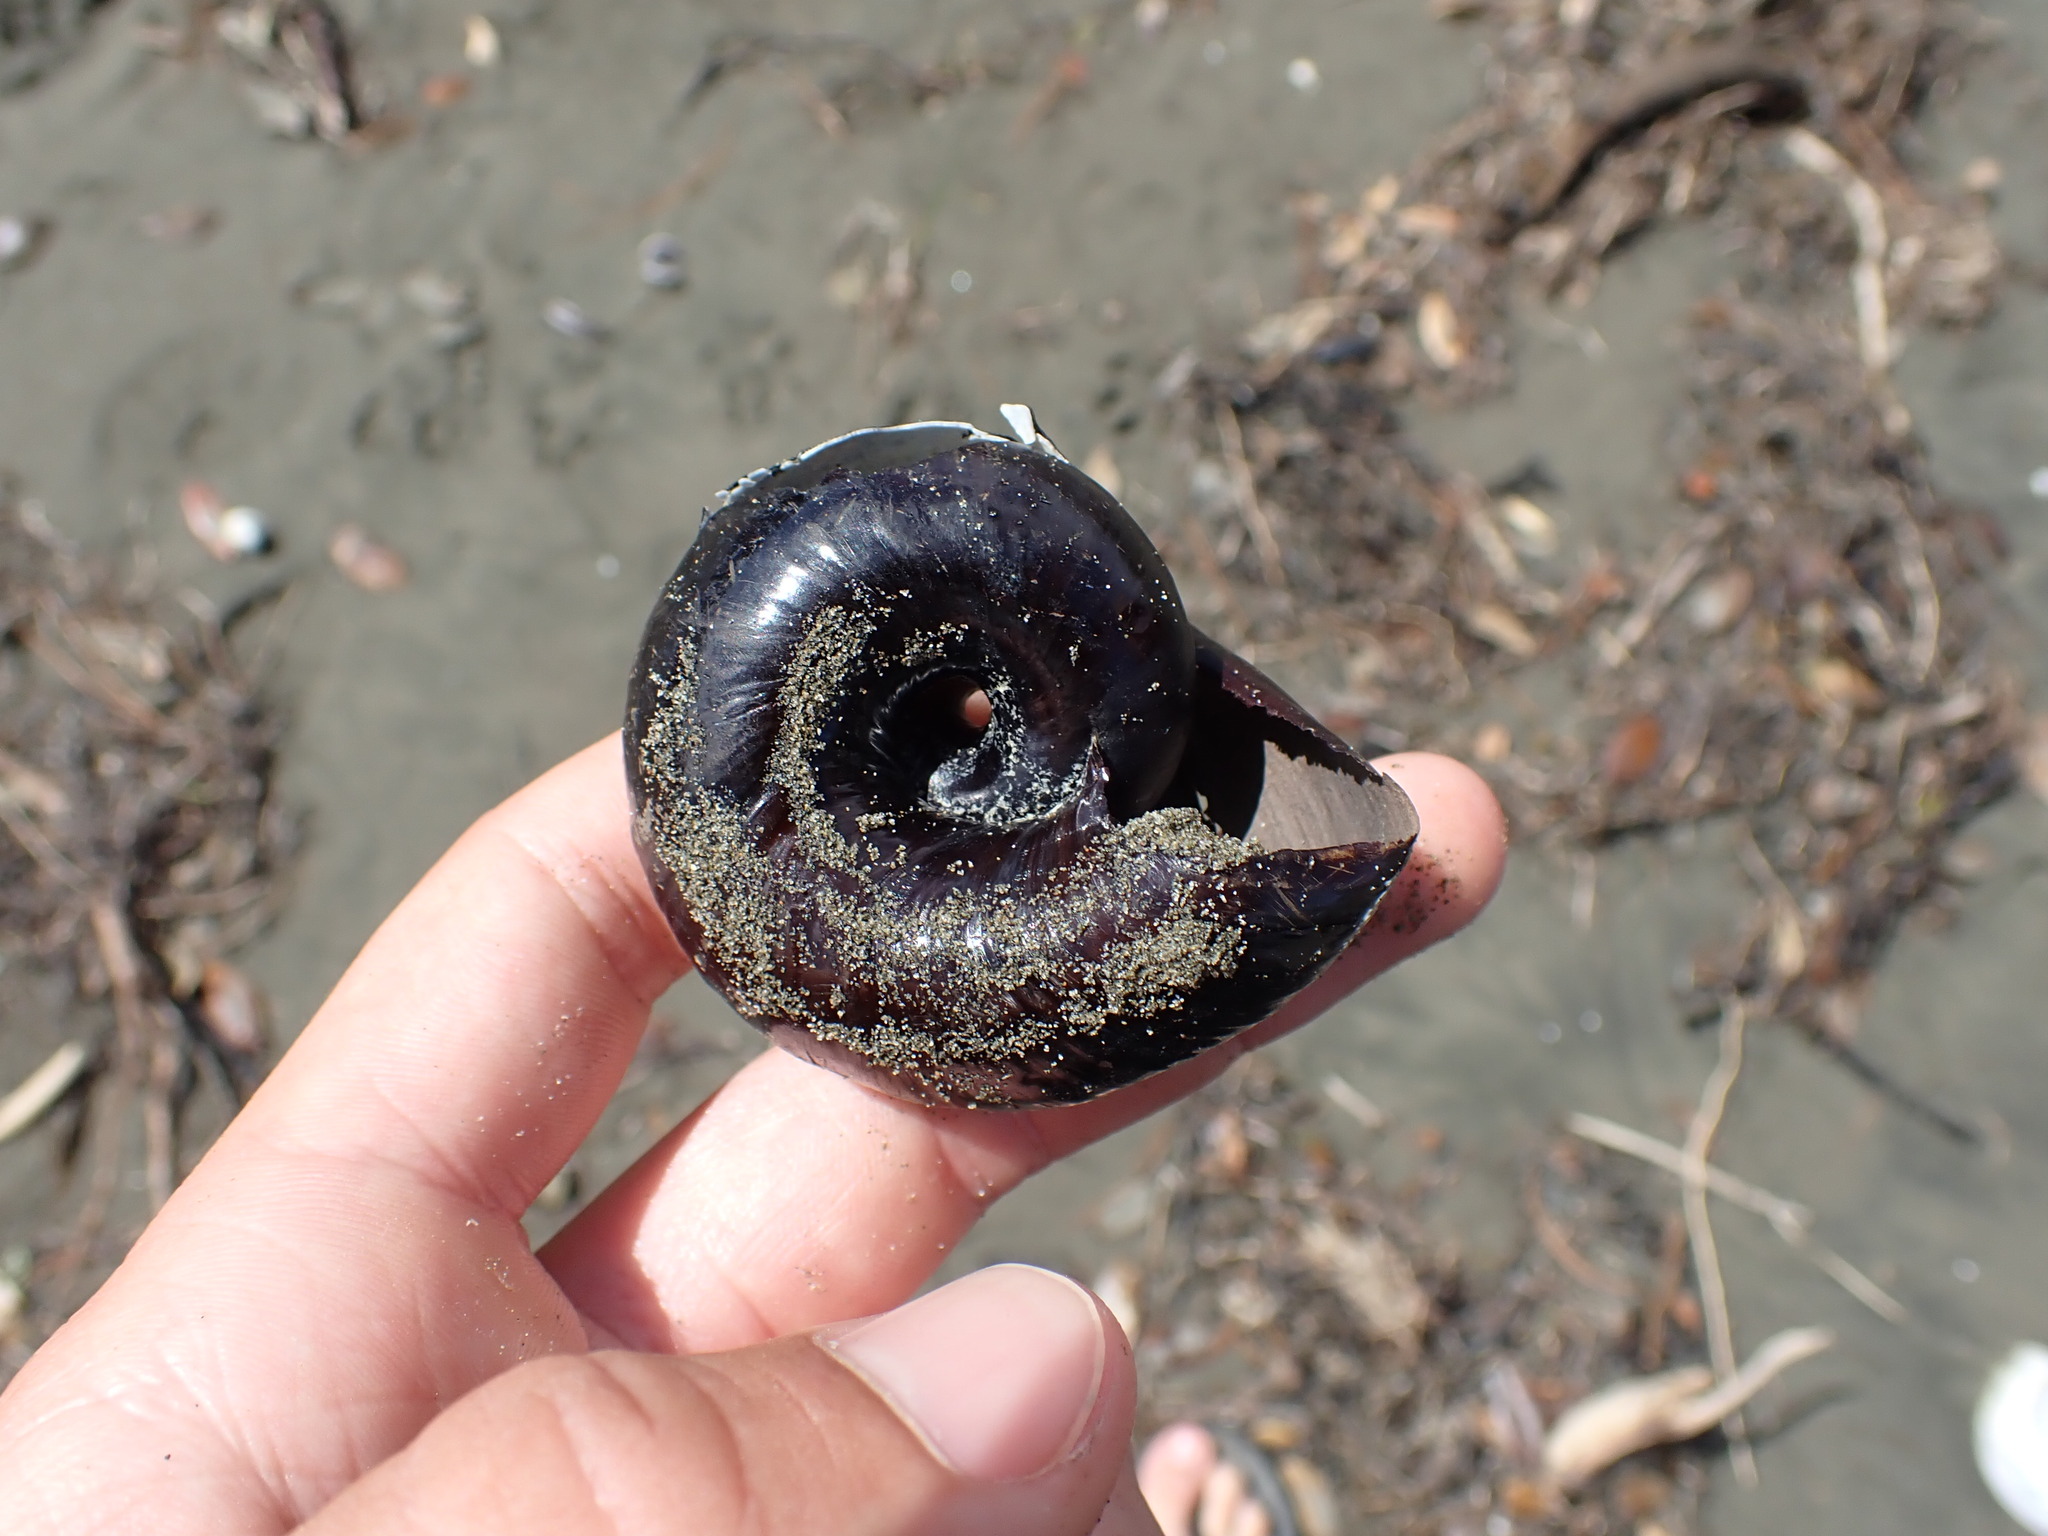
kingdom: Animalia
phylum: Mollusca
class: Gastropoda
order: Stylommatophora
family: Rhytididae
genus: Paryphanta
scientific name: Paryphanta busbyi
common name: Kauri snail
